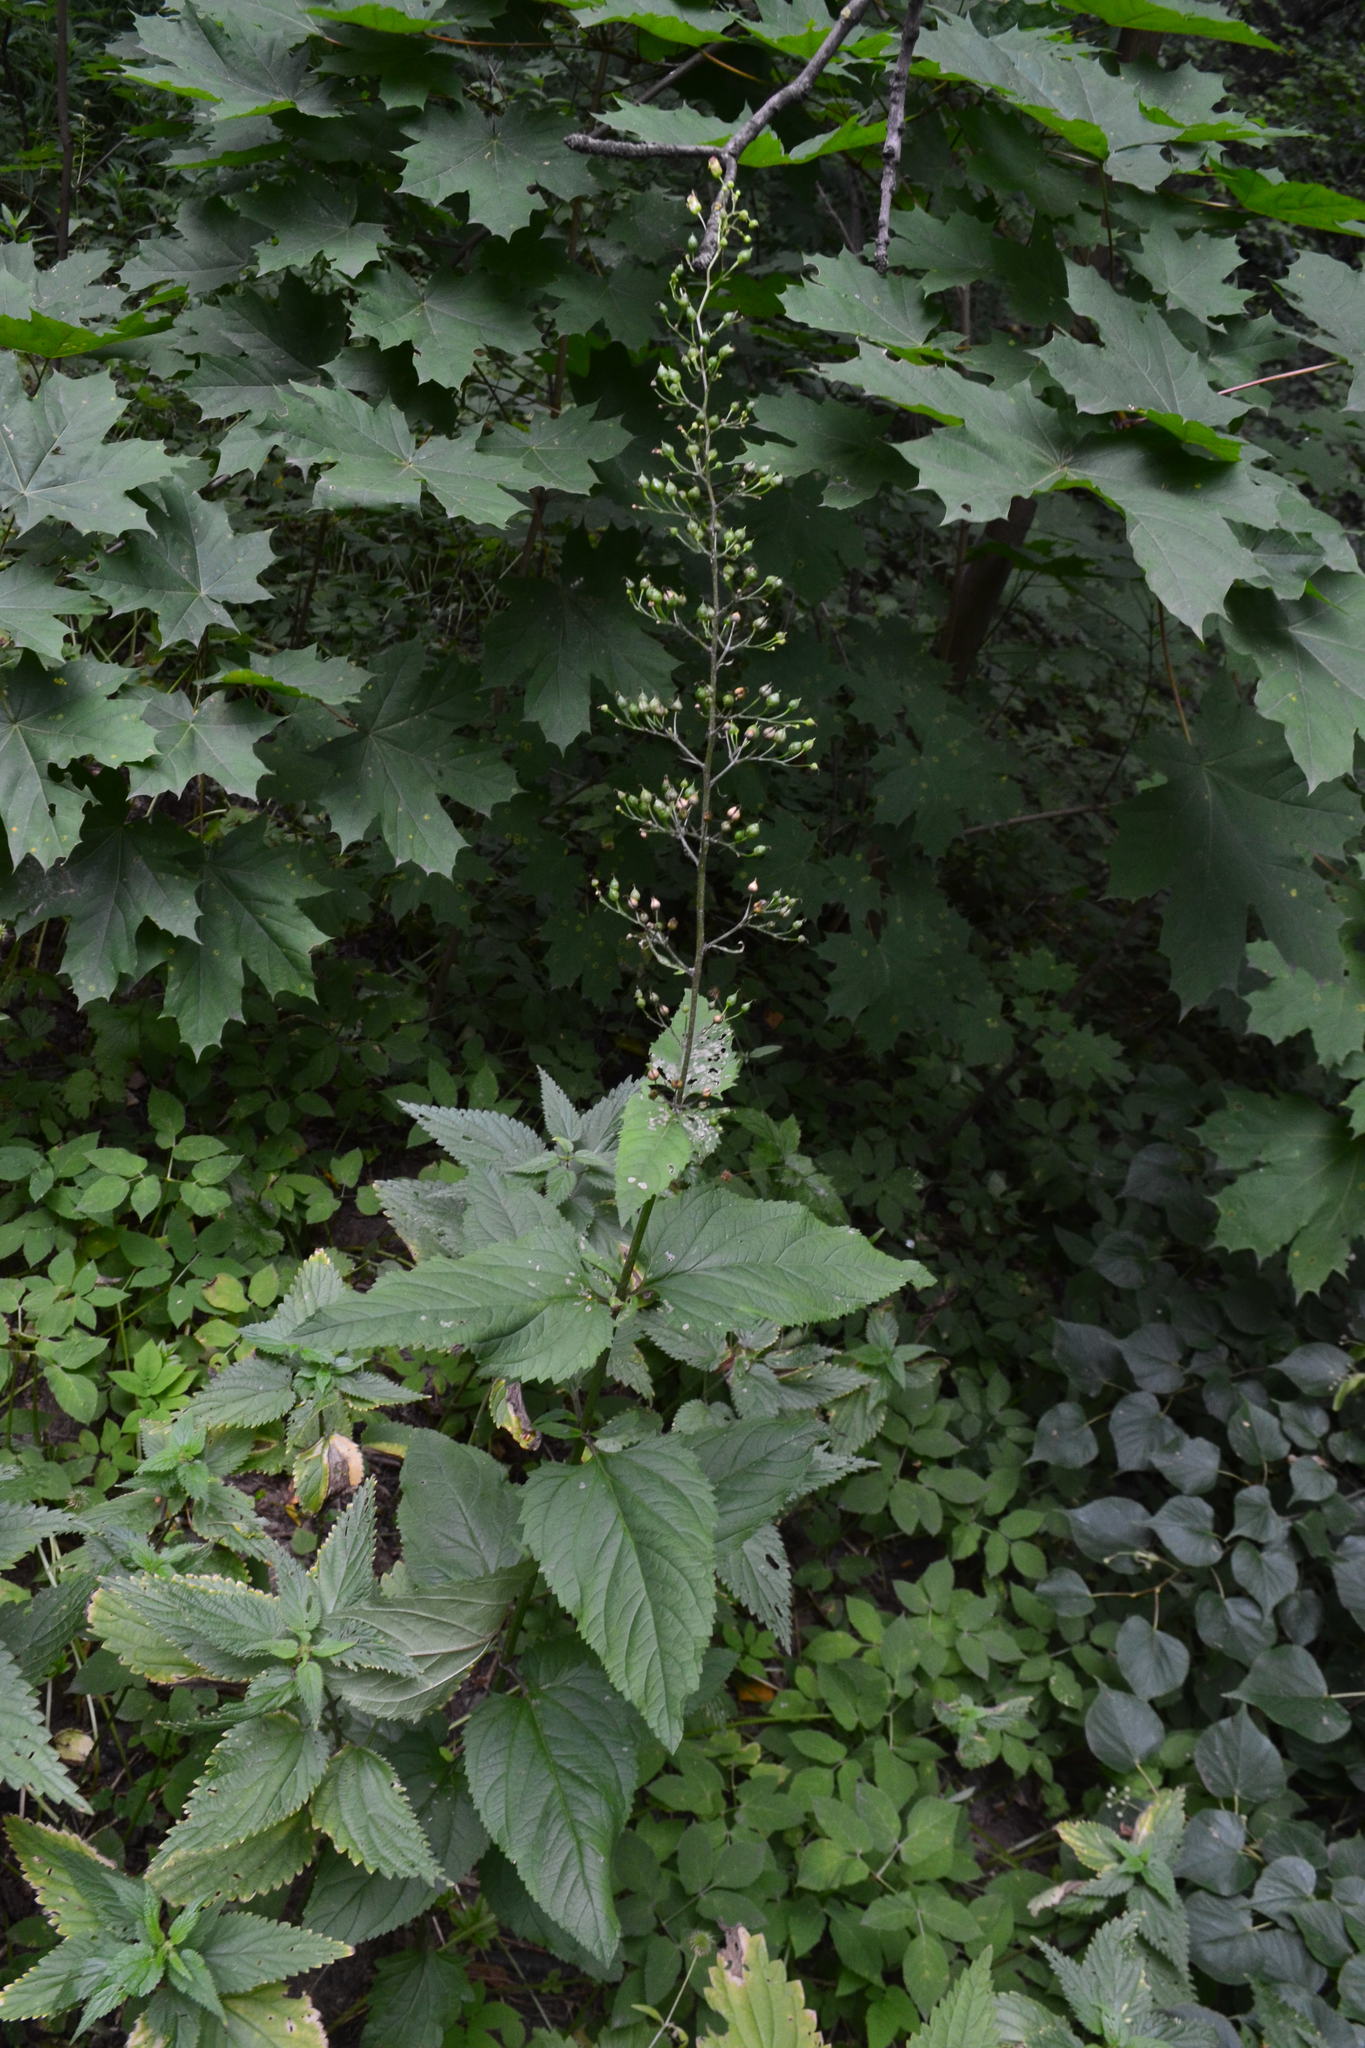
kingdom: Plantae
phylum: Tracheophyta
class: Magnoliopsida
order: Lamiales
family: Scrophulariaceae
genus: Scrophularia
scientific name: Scrophularia nodosa
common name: Common figwort
